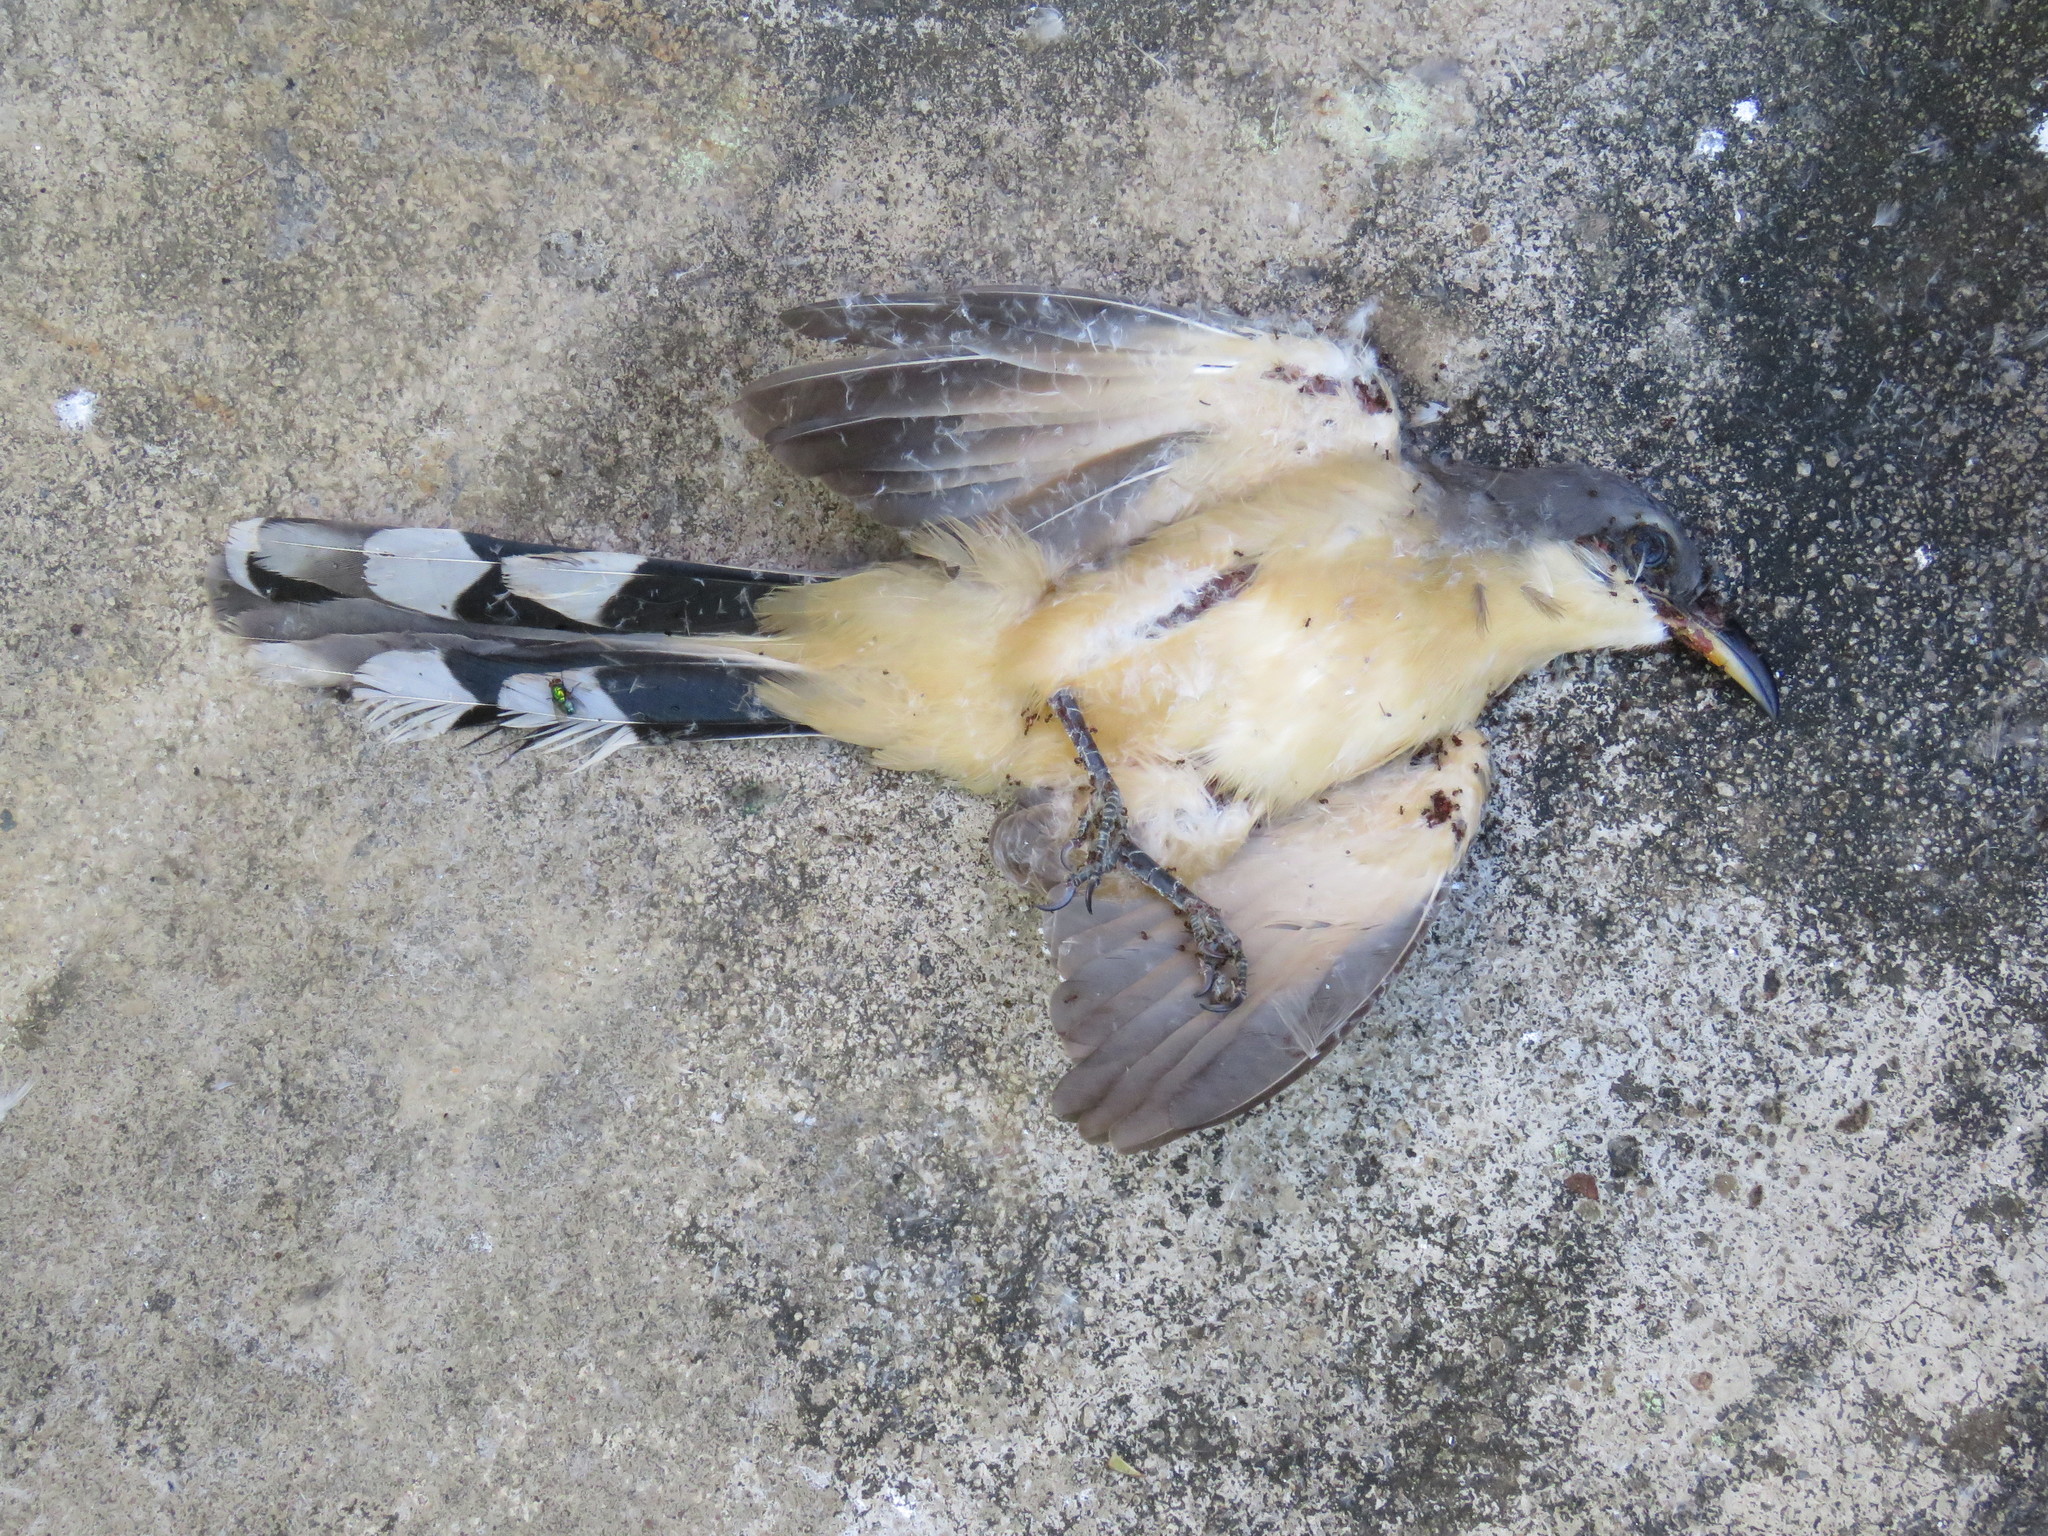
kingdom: Animalia
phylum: Chordata
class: Aves
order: Cuculiformes
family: Cuculidae
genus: Coccyzus
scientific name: Coccyzus minor
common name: Mangrove cuckoo
